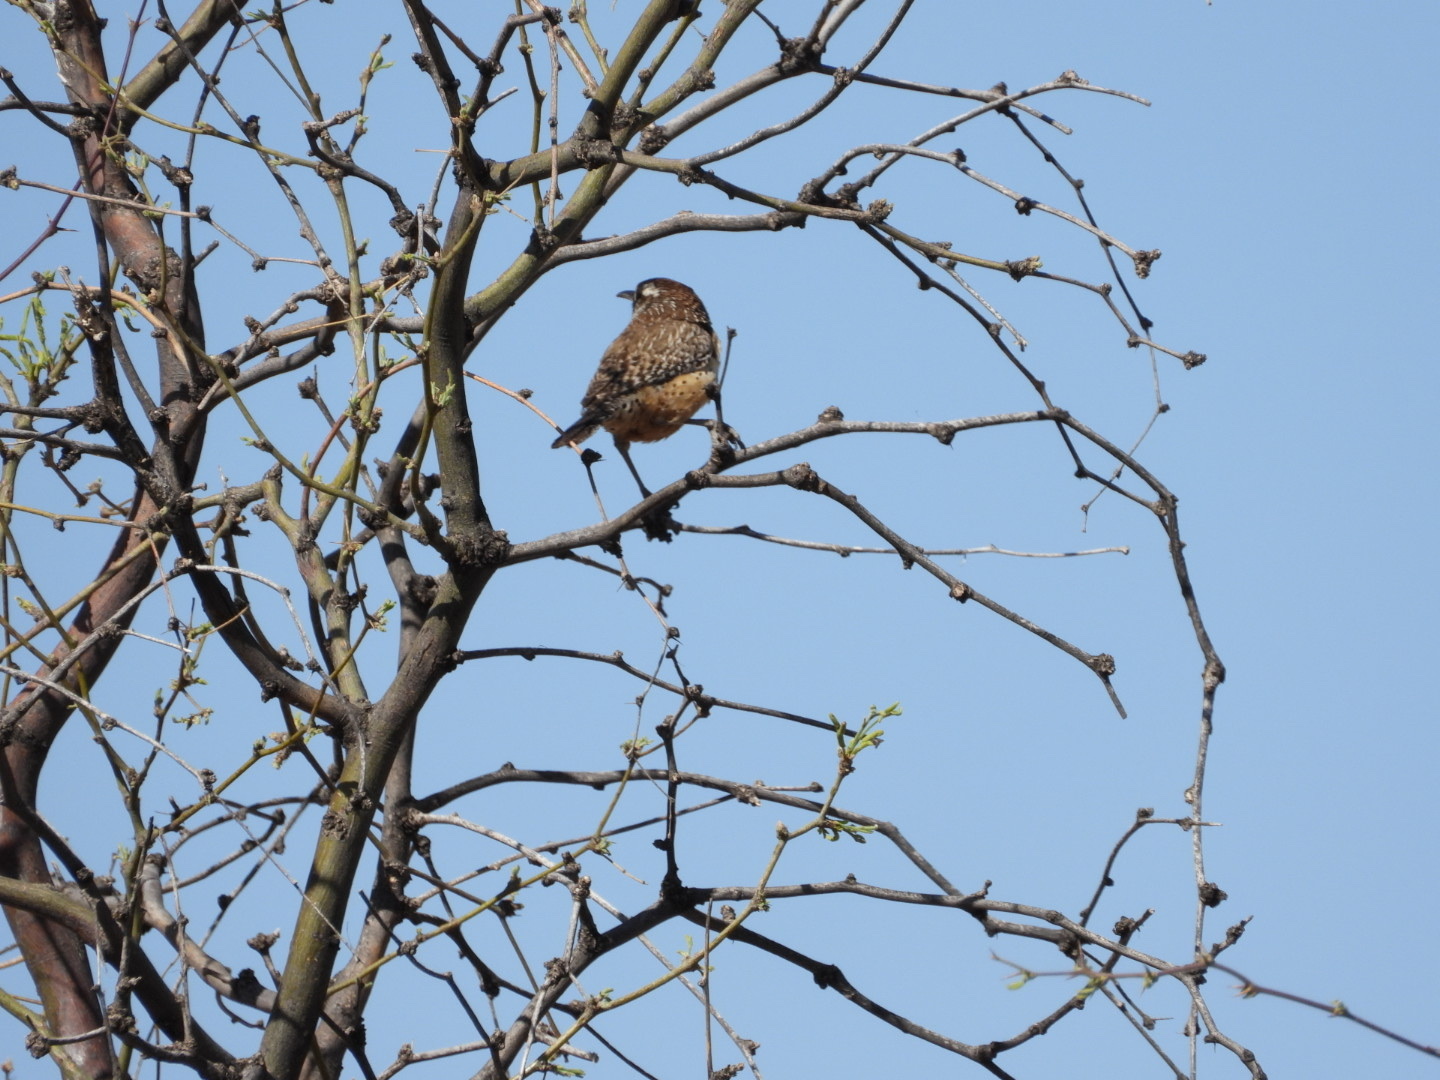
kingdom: Animalia
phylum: Chordata
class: Aves
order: Passeriformes
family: Troglodytidae
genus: Campylorhynchus
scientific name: Campylorhynchus brunneicapillus
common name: Cactus wren
